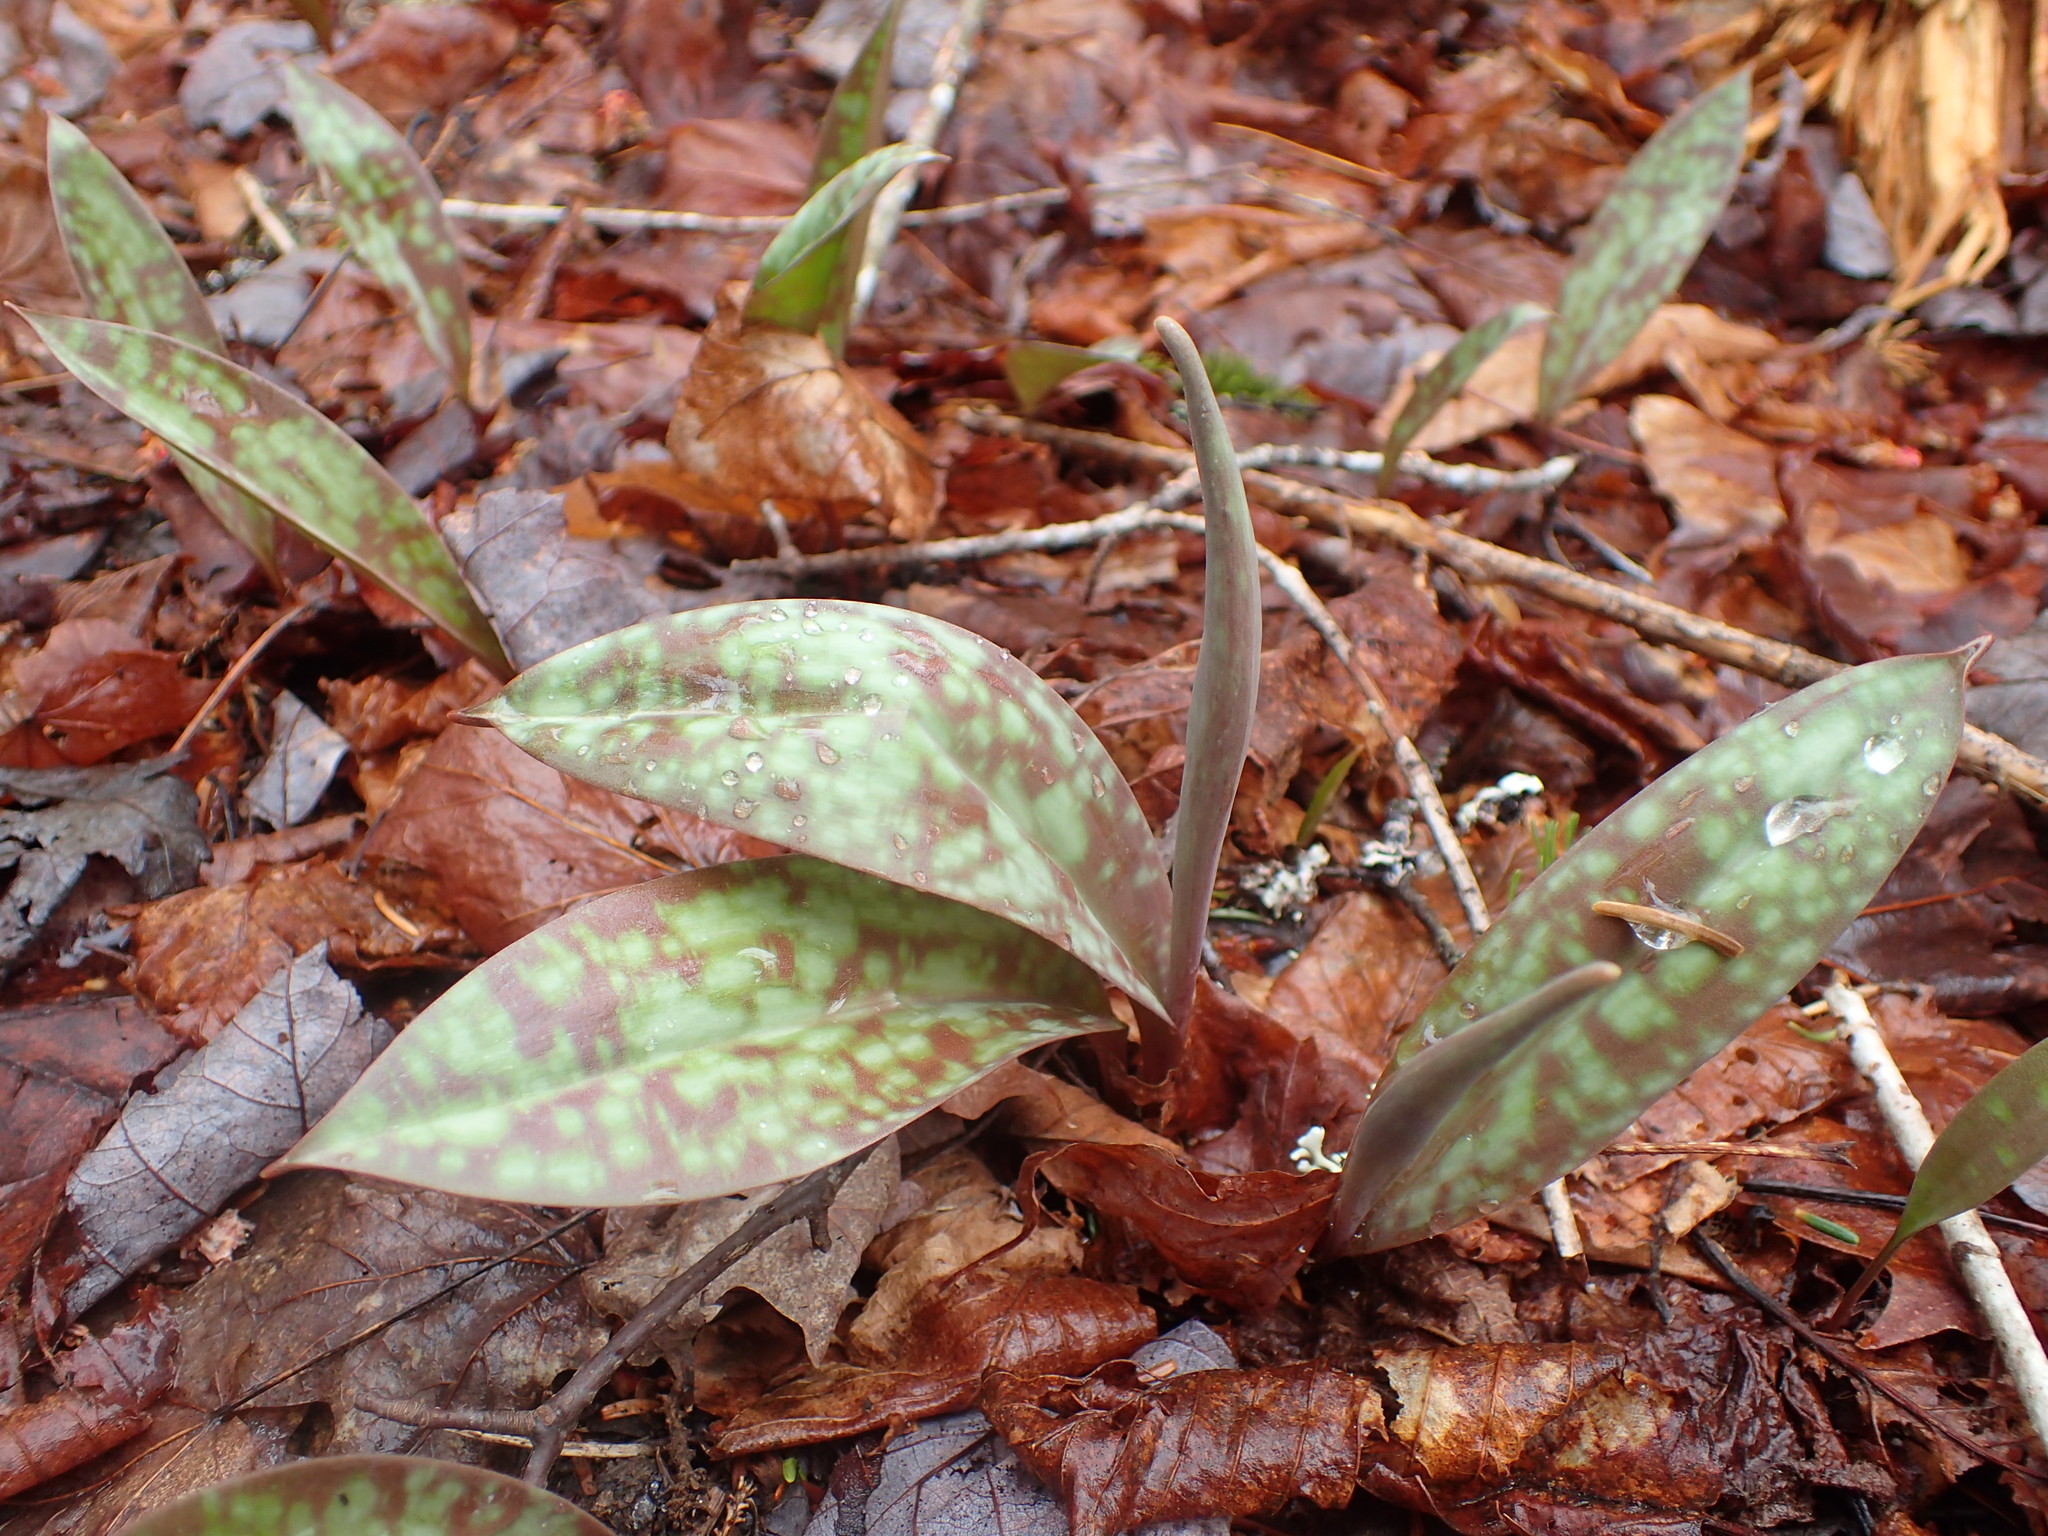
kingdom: Plantae
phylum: Tracheophyta
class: Liliopsida
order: Liliales
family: Liliaceae
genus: Erythronium
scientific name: Erythronium americanum
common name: Yellow adder's-tongue
